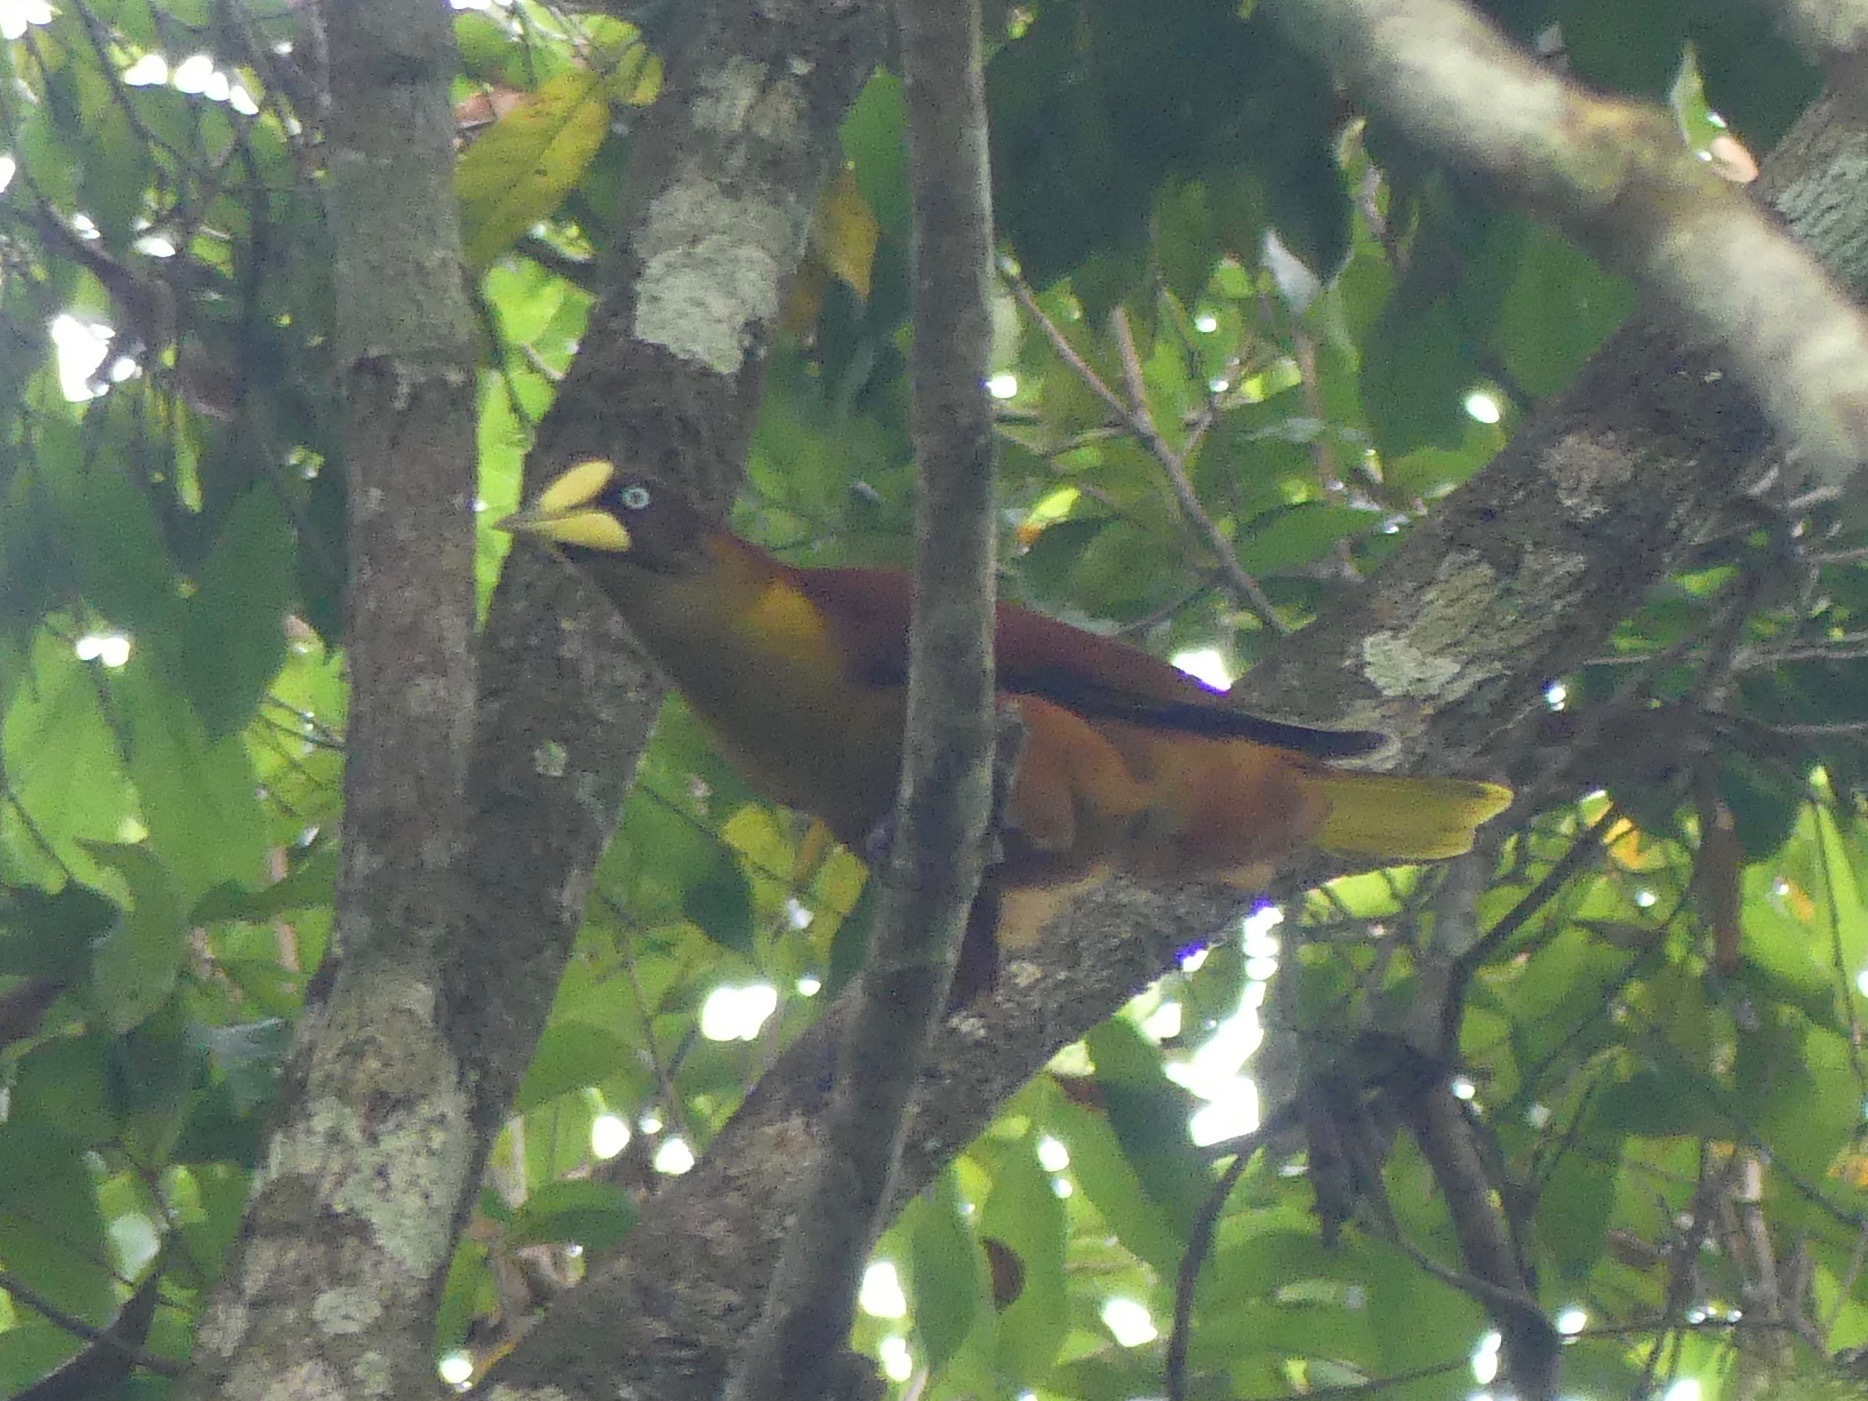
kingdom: Animalia
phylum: Chordata
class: Aves
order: Passeriformes
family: Icteridae
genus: Psarocolius
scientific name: Psarocolius oseryi
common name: Casqued oropendola
